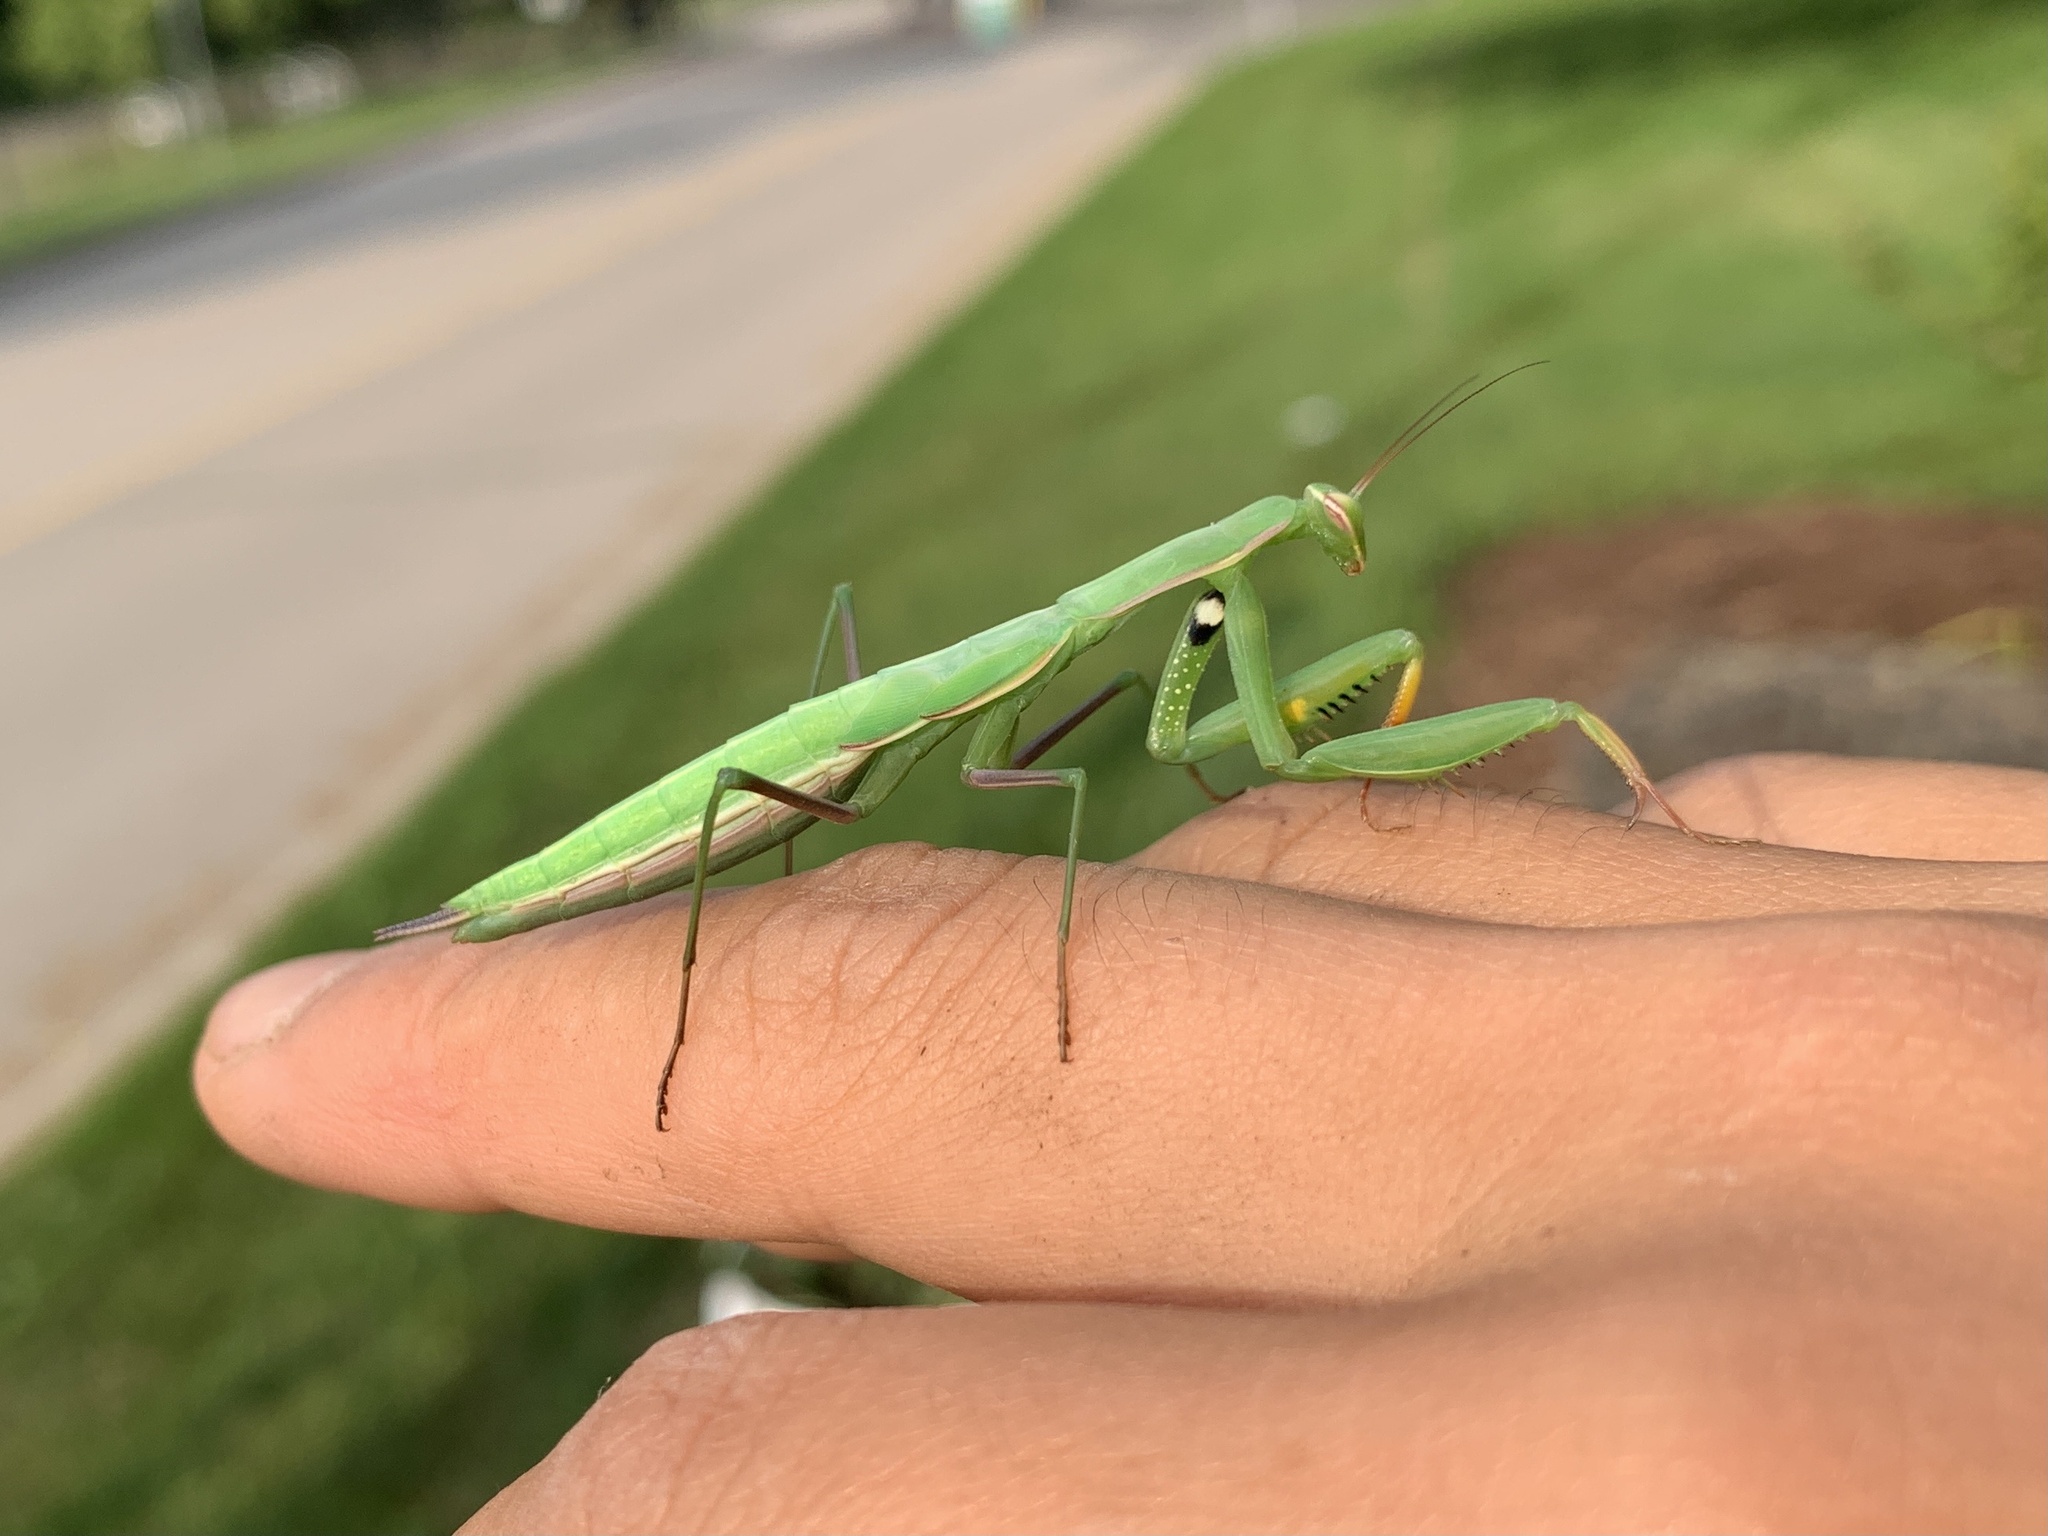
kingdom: Animalia
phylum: Arthropoda
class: Insecta
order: Mantodea
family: Mantidae
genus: Mantis
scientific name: Mantis religiosa
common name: Praying mantis
